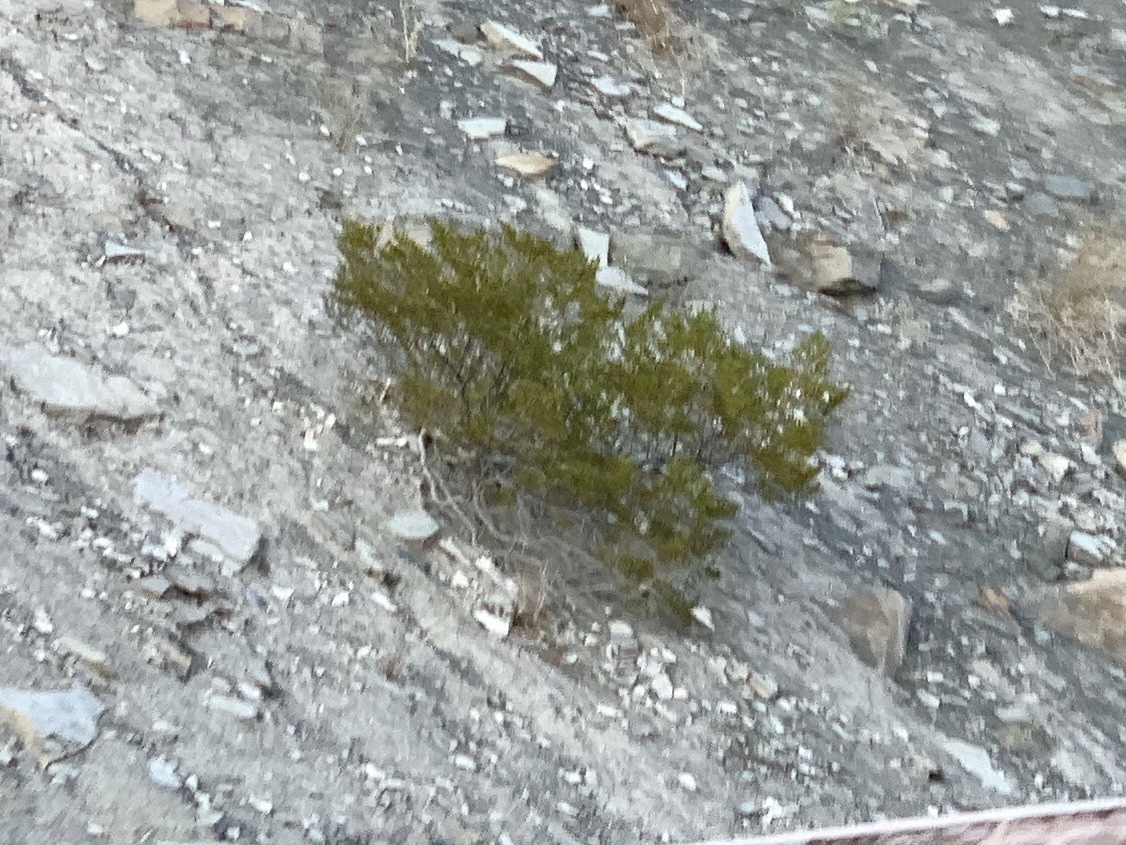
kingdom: Plantae
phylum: Tracheophyta
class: Magnoliopsida
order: Zygophyllales
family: Zygophyllaceae
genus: Larrea
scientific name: Larrea tridentata
